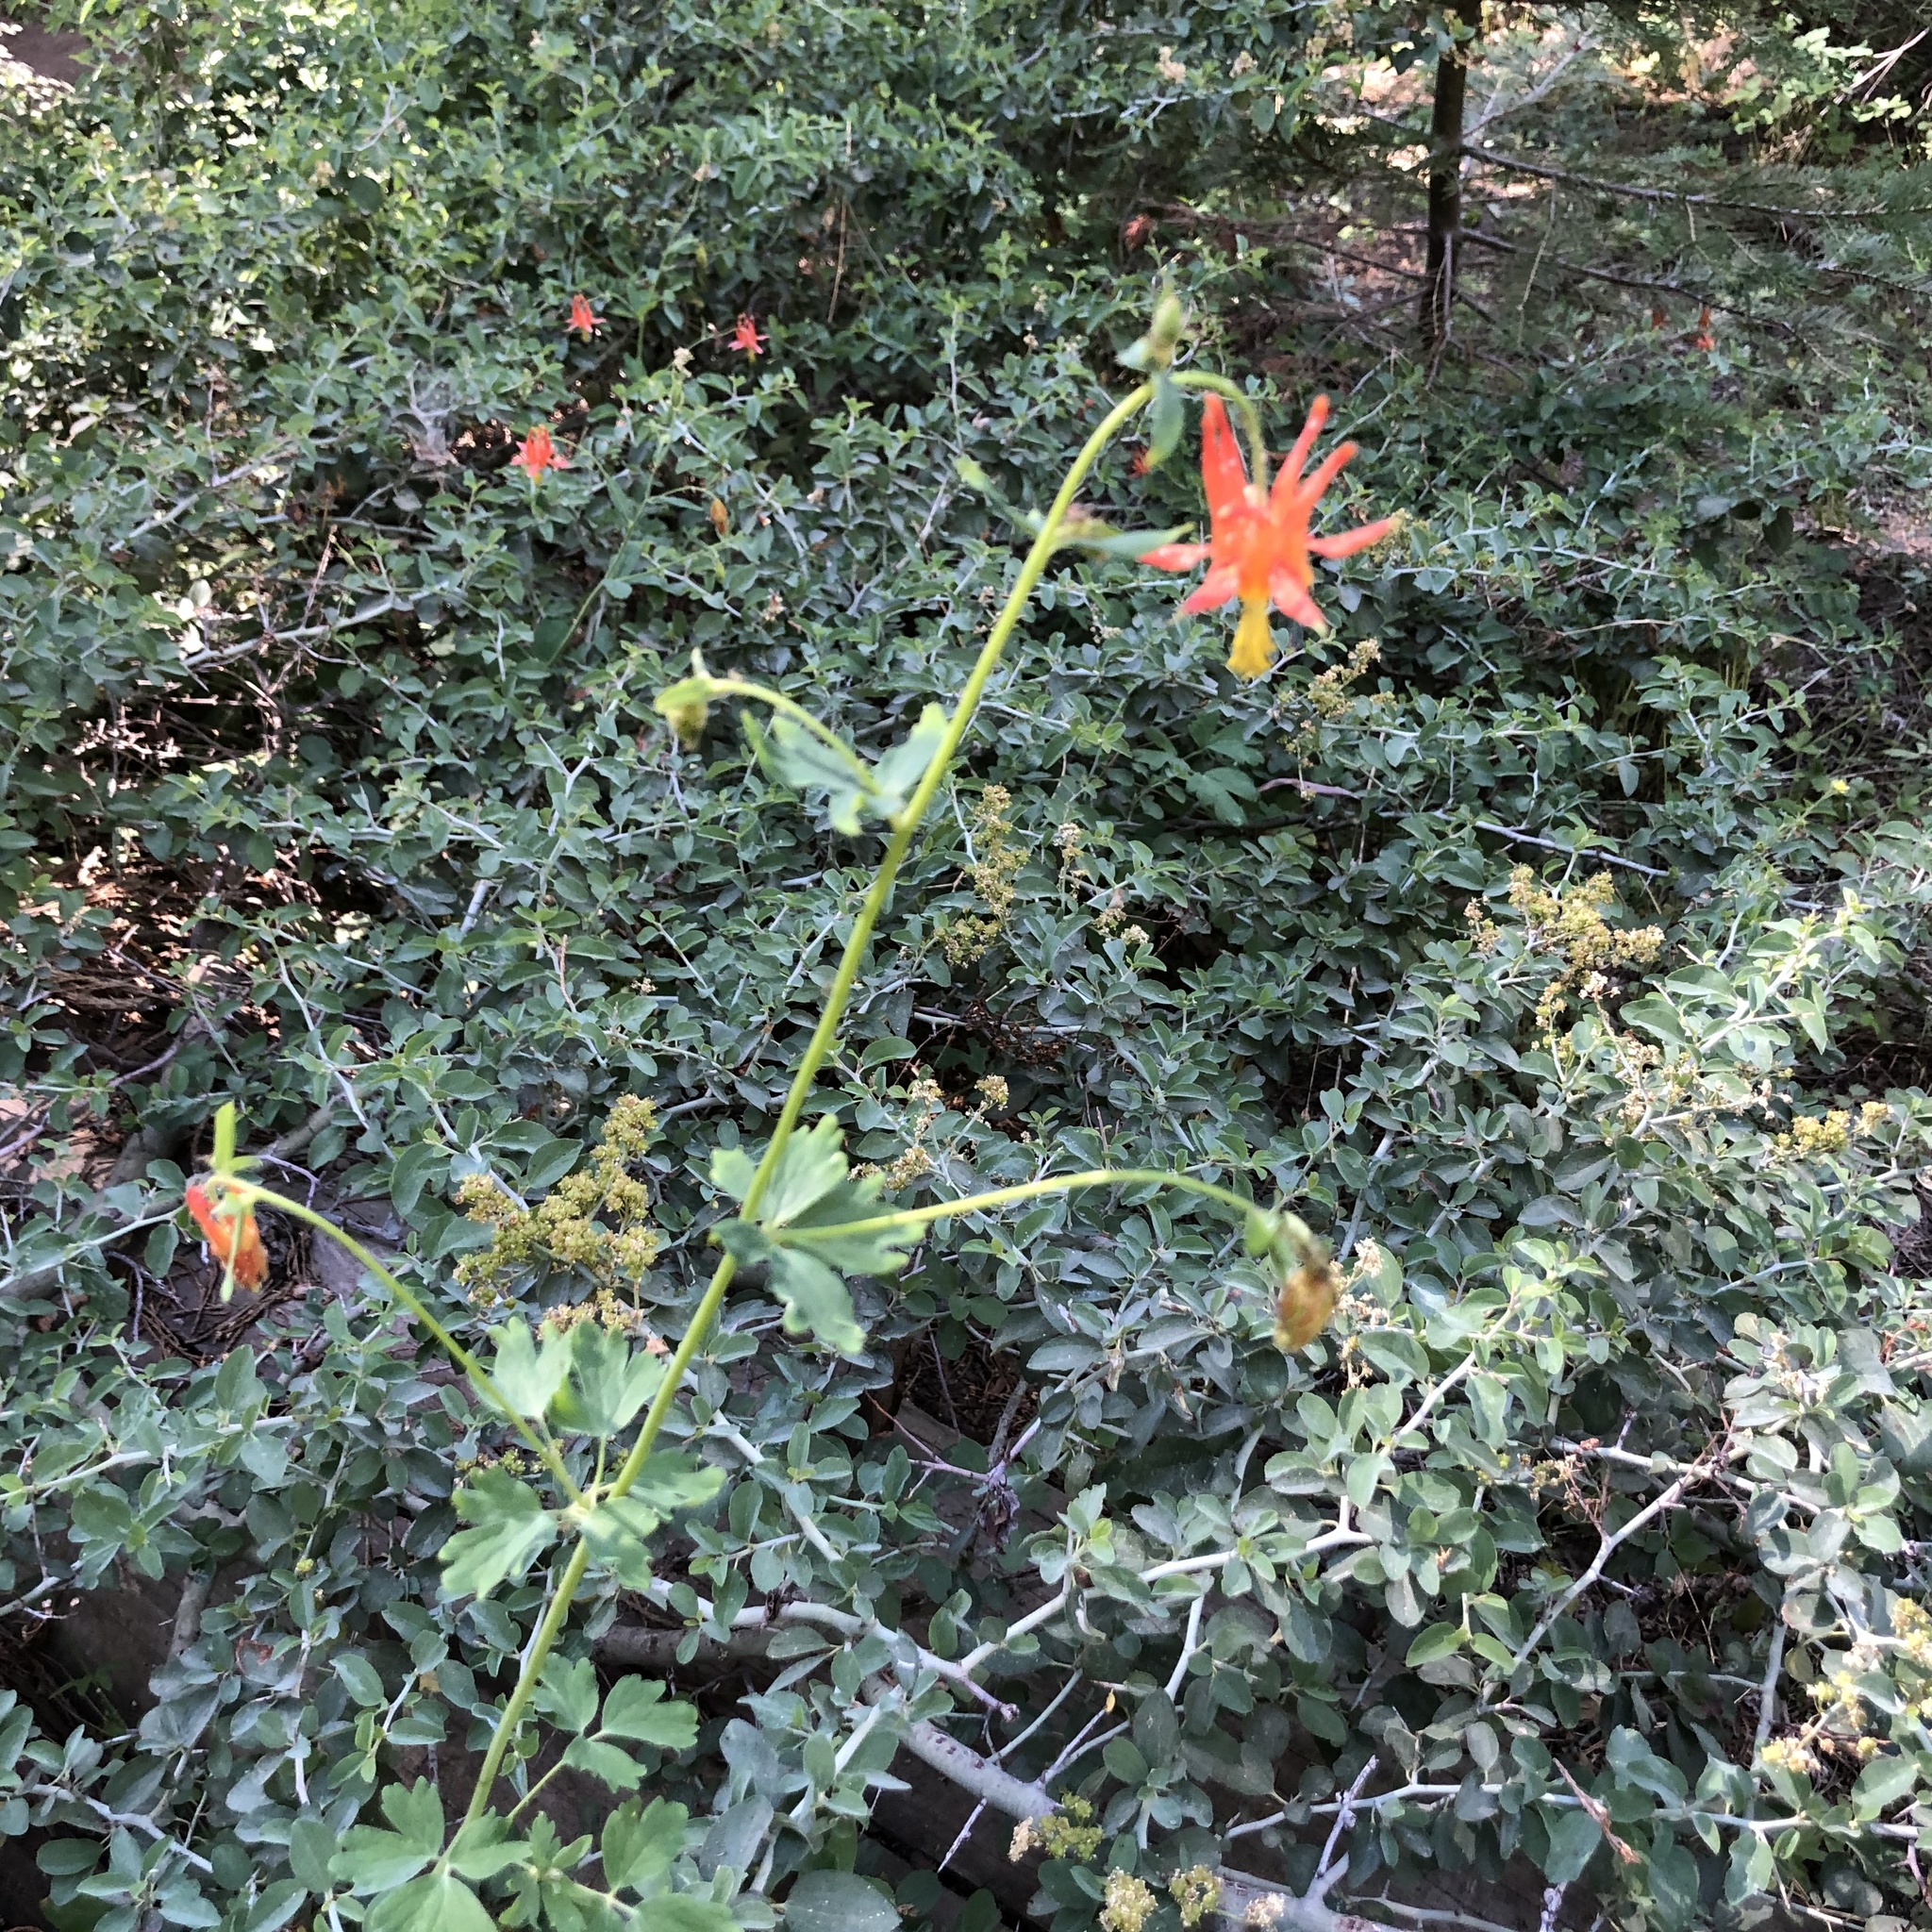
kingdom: Plantae
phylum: Tracheophyta
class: Magnoliopsida
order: Ranunculales
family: Ranunculaceae
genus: Aquilegia
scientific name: Aquilegia formosa
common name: Sitka columbine
